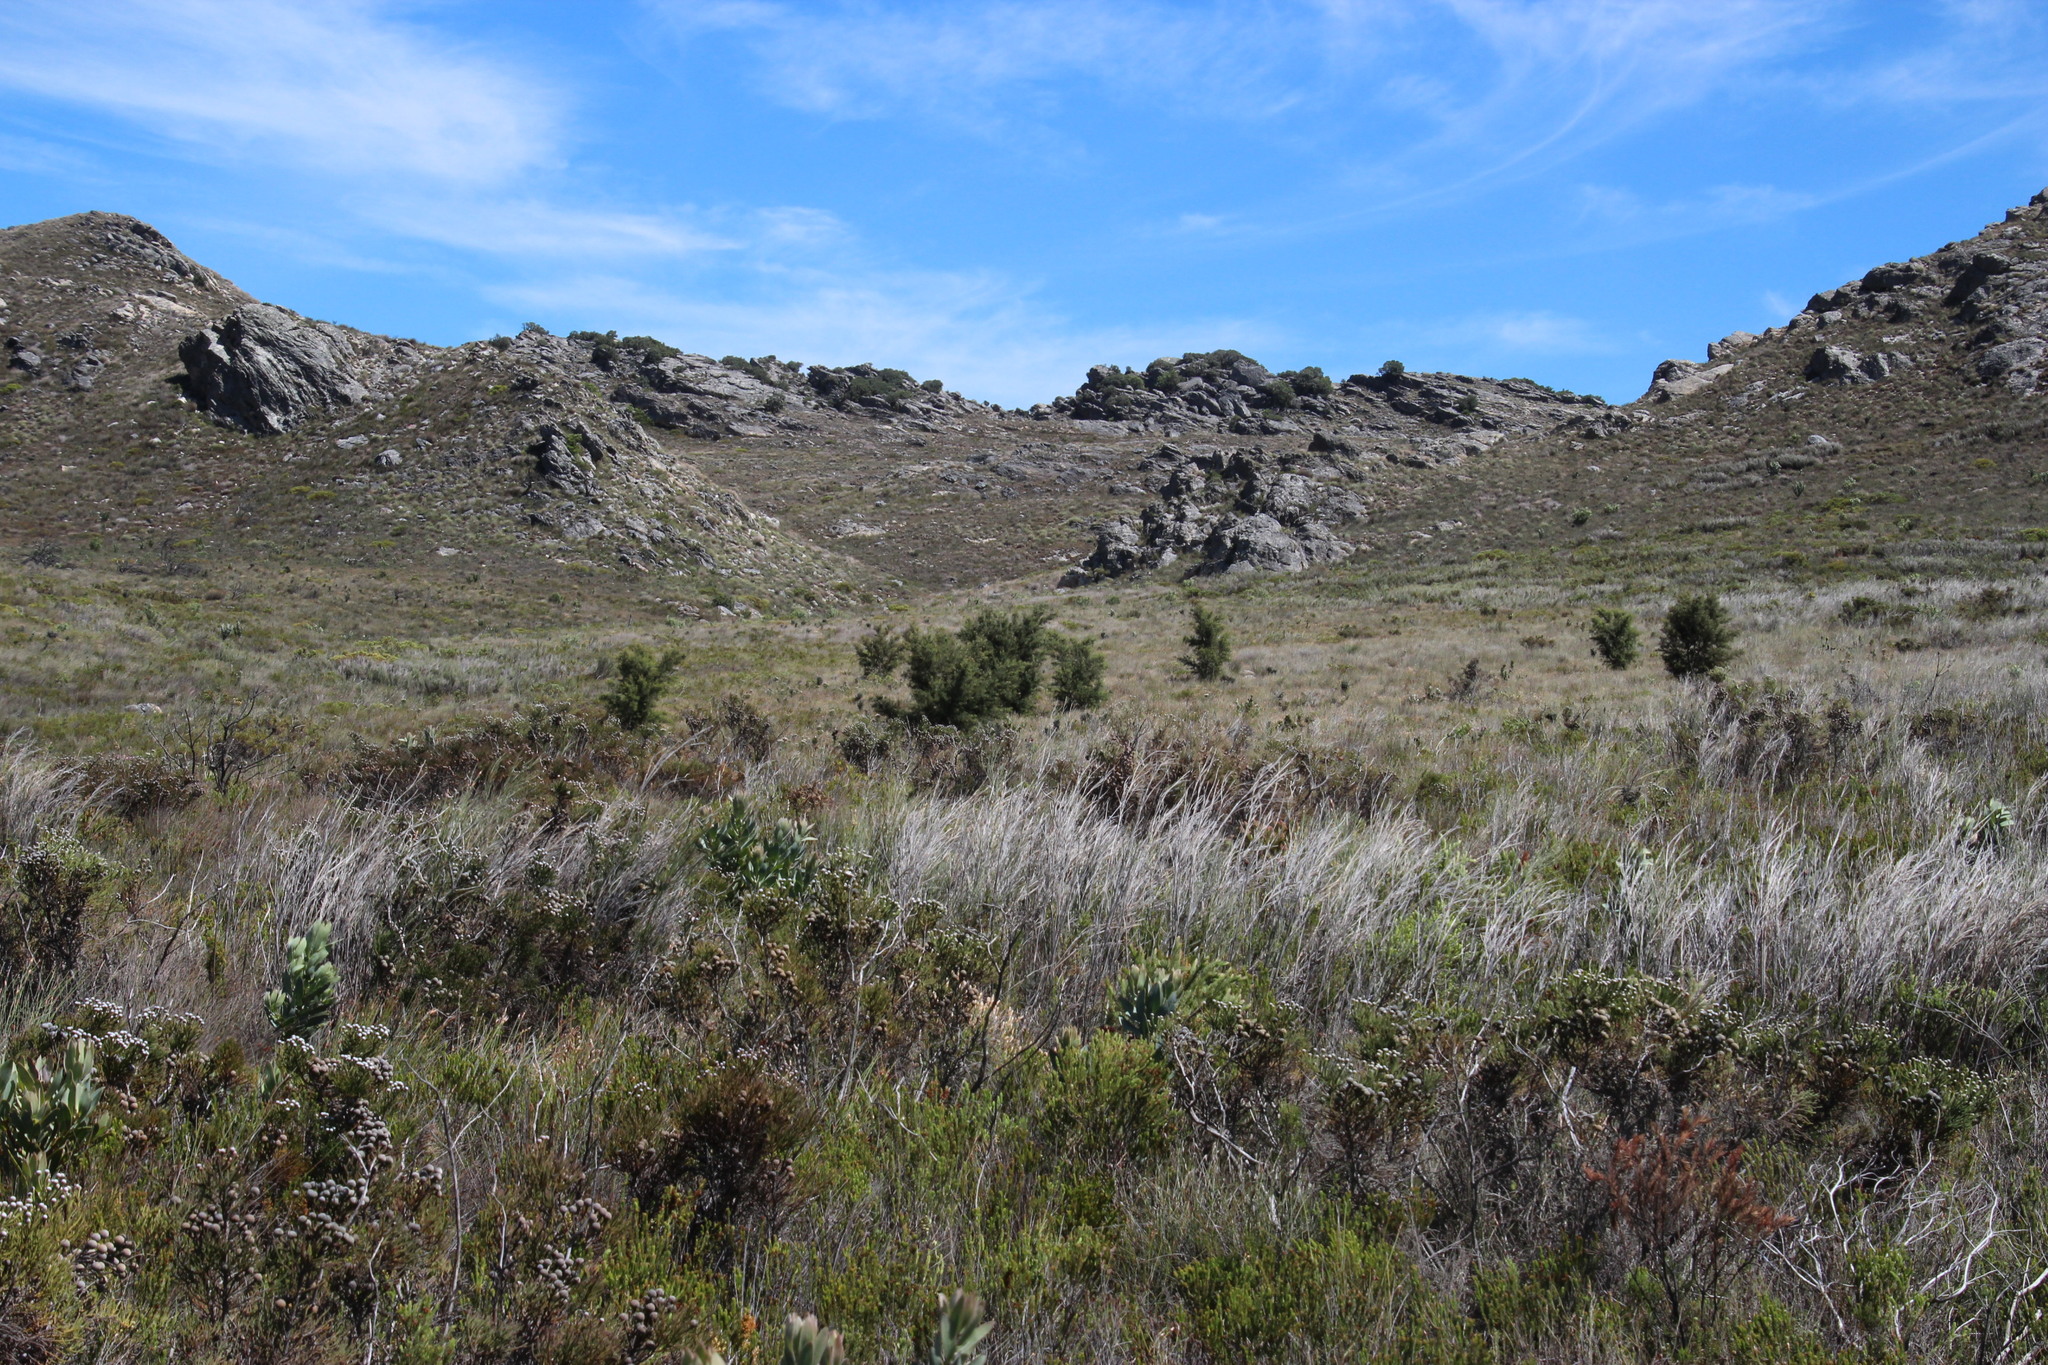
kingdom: Plantae
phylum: Tracheophyta
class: Magnoliopsida
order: Proteales
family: Proteaceae
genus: Hakea
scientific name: Hakea sericea
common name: Needle bush
